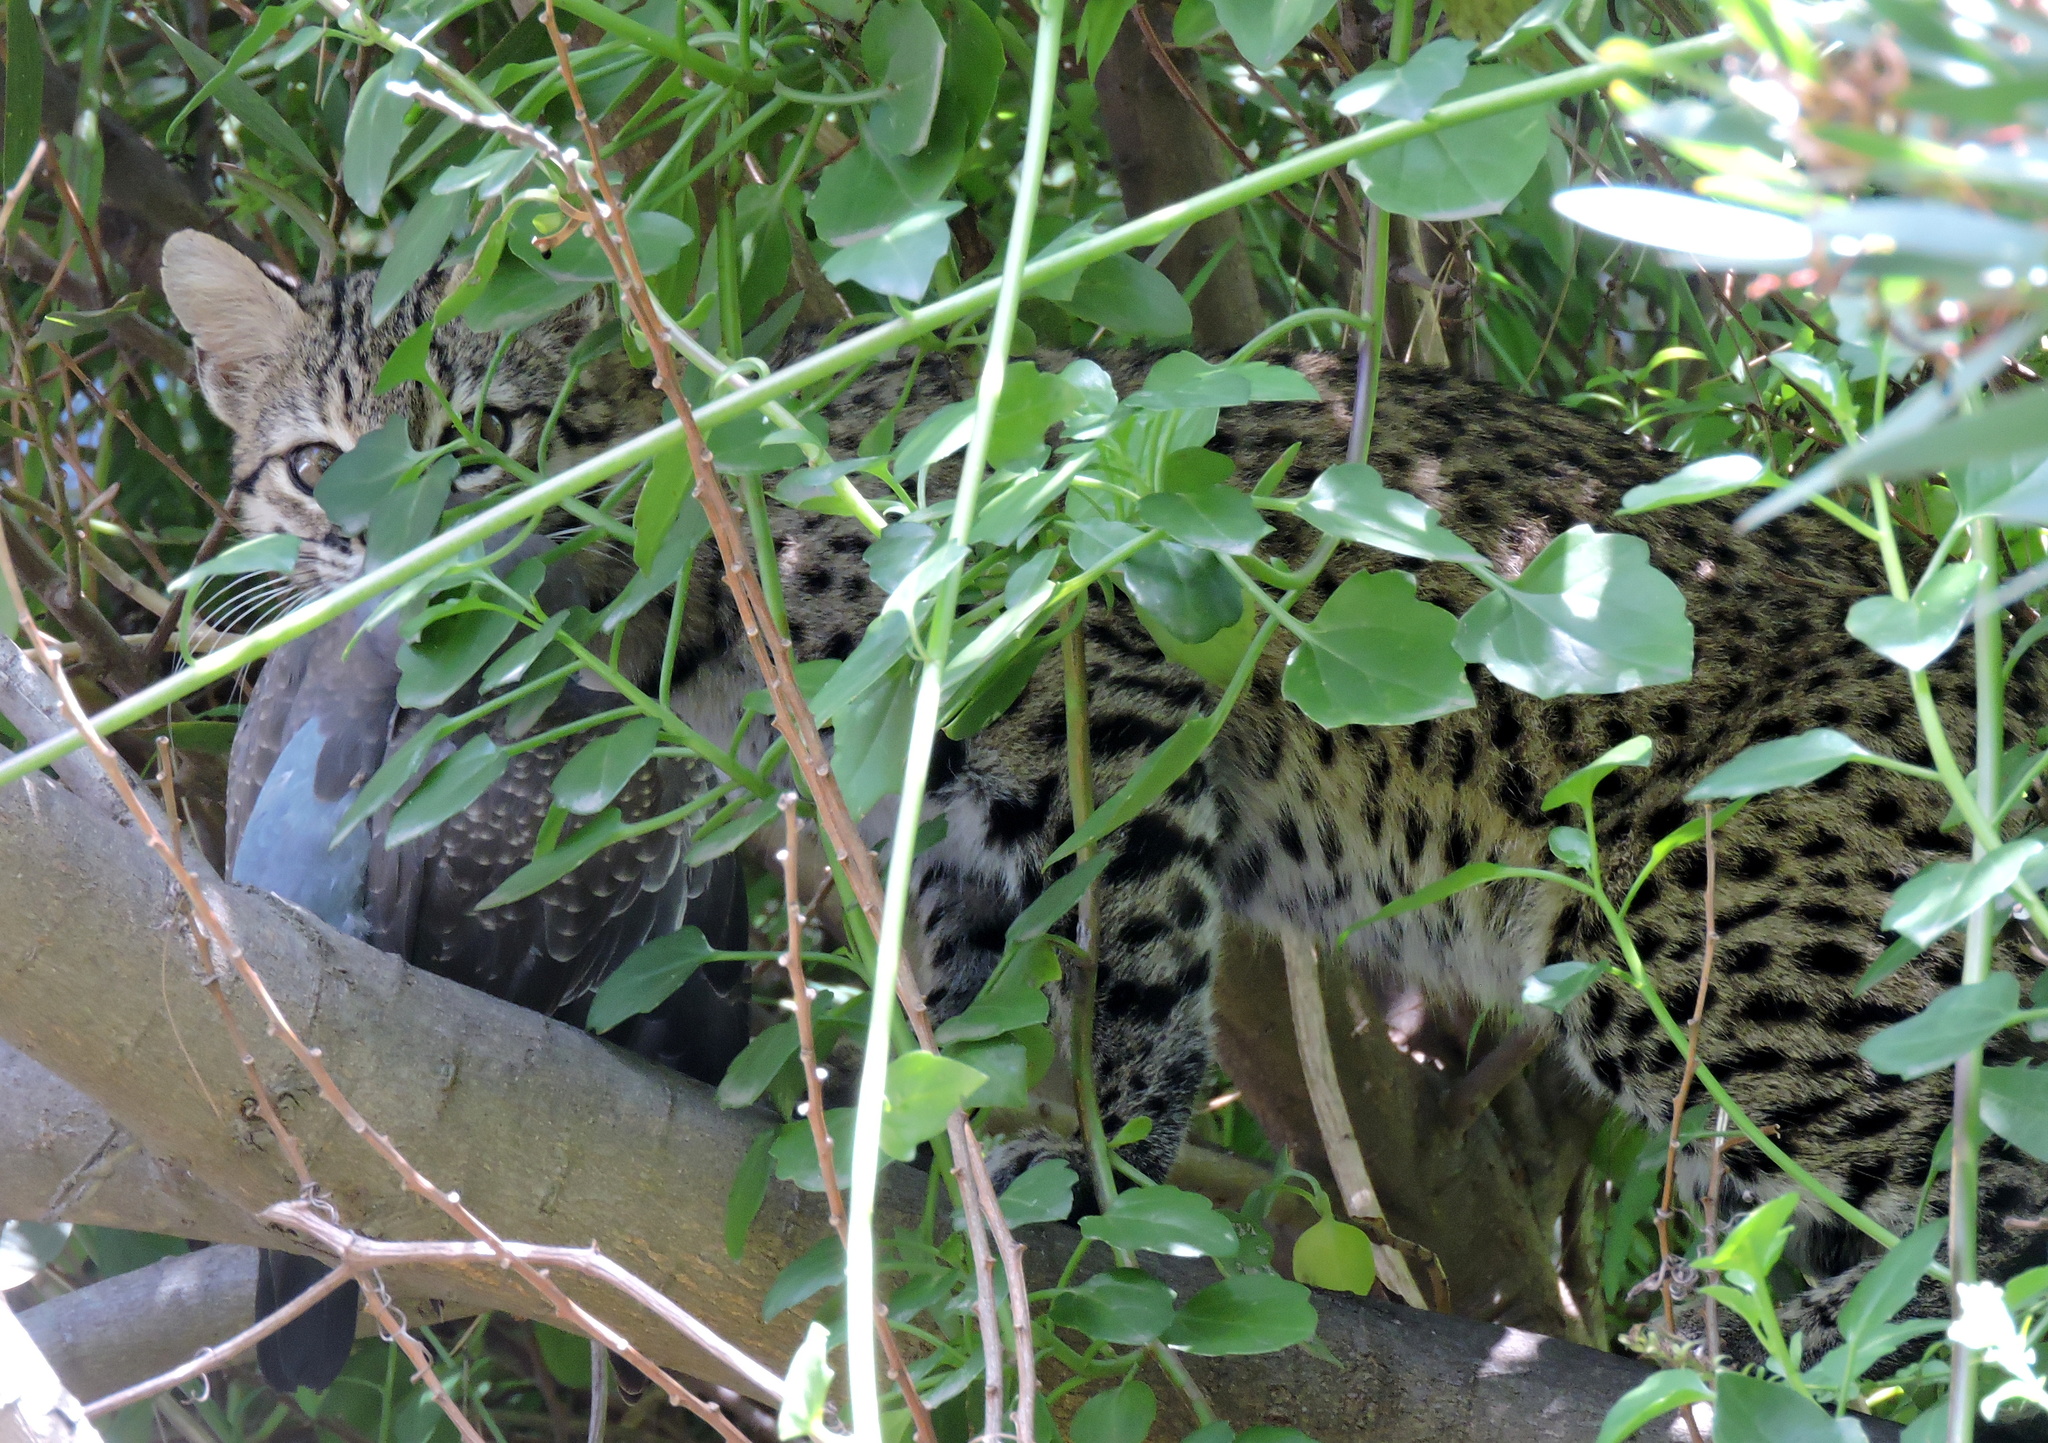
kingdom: Animalia
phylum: Chordata
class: Mammalia
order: Carnivora
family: Felidae
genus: Leopardus
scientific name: Leopardus geoffroyi
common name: Geoffroy's cat
